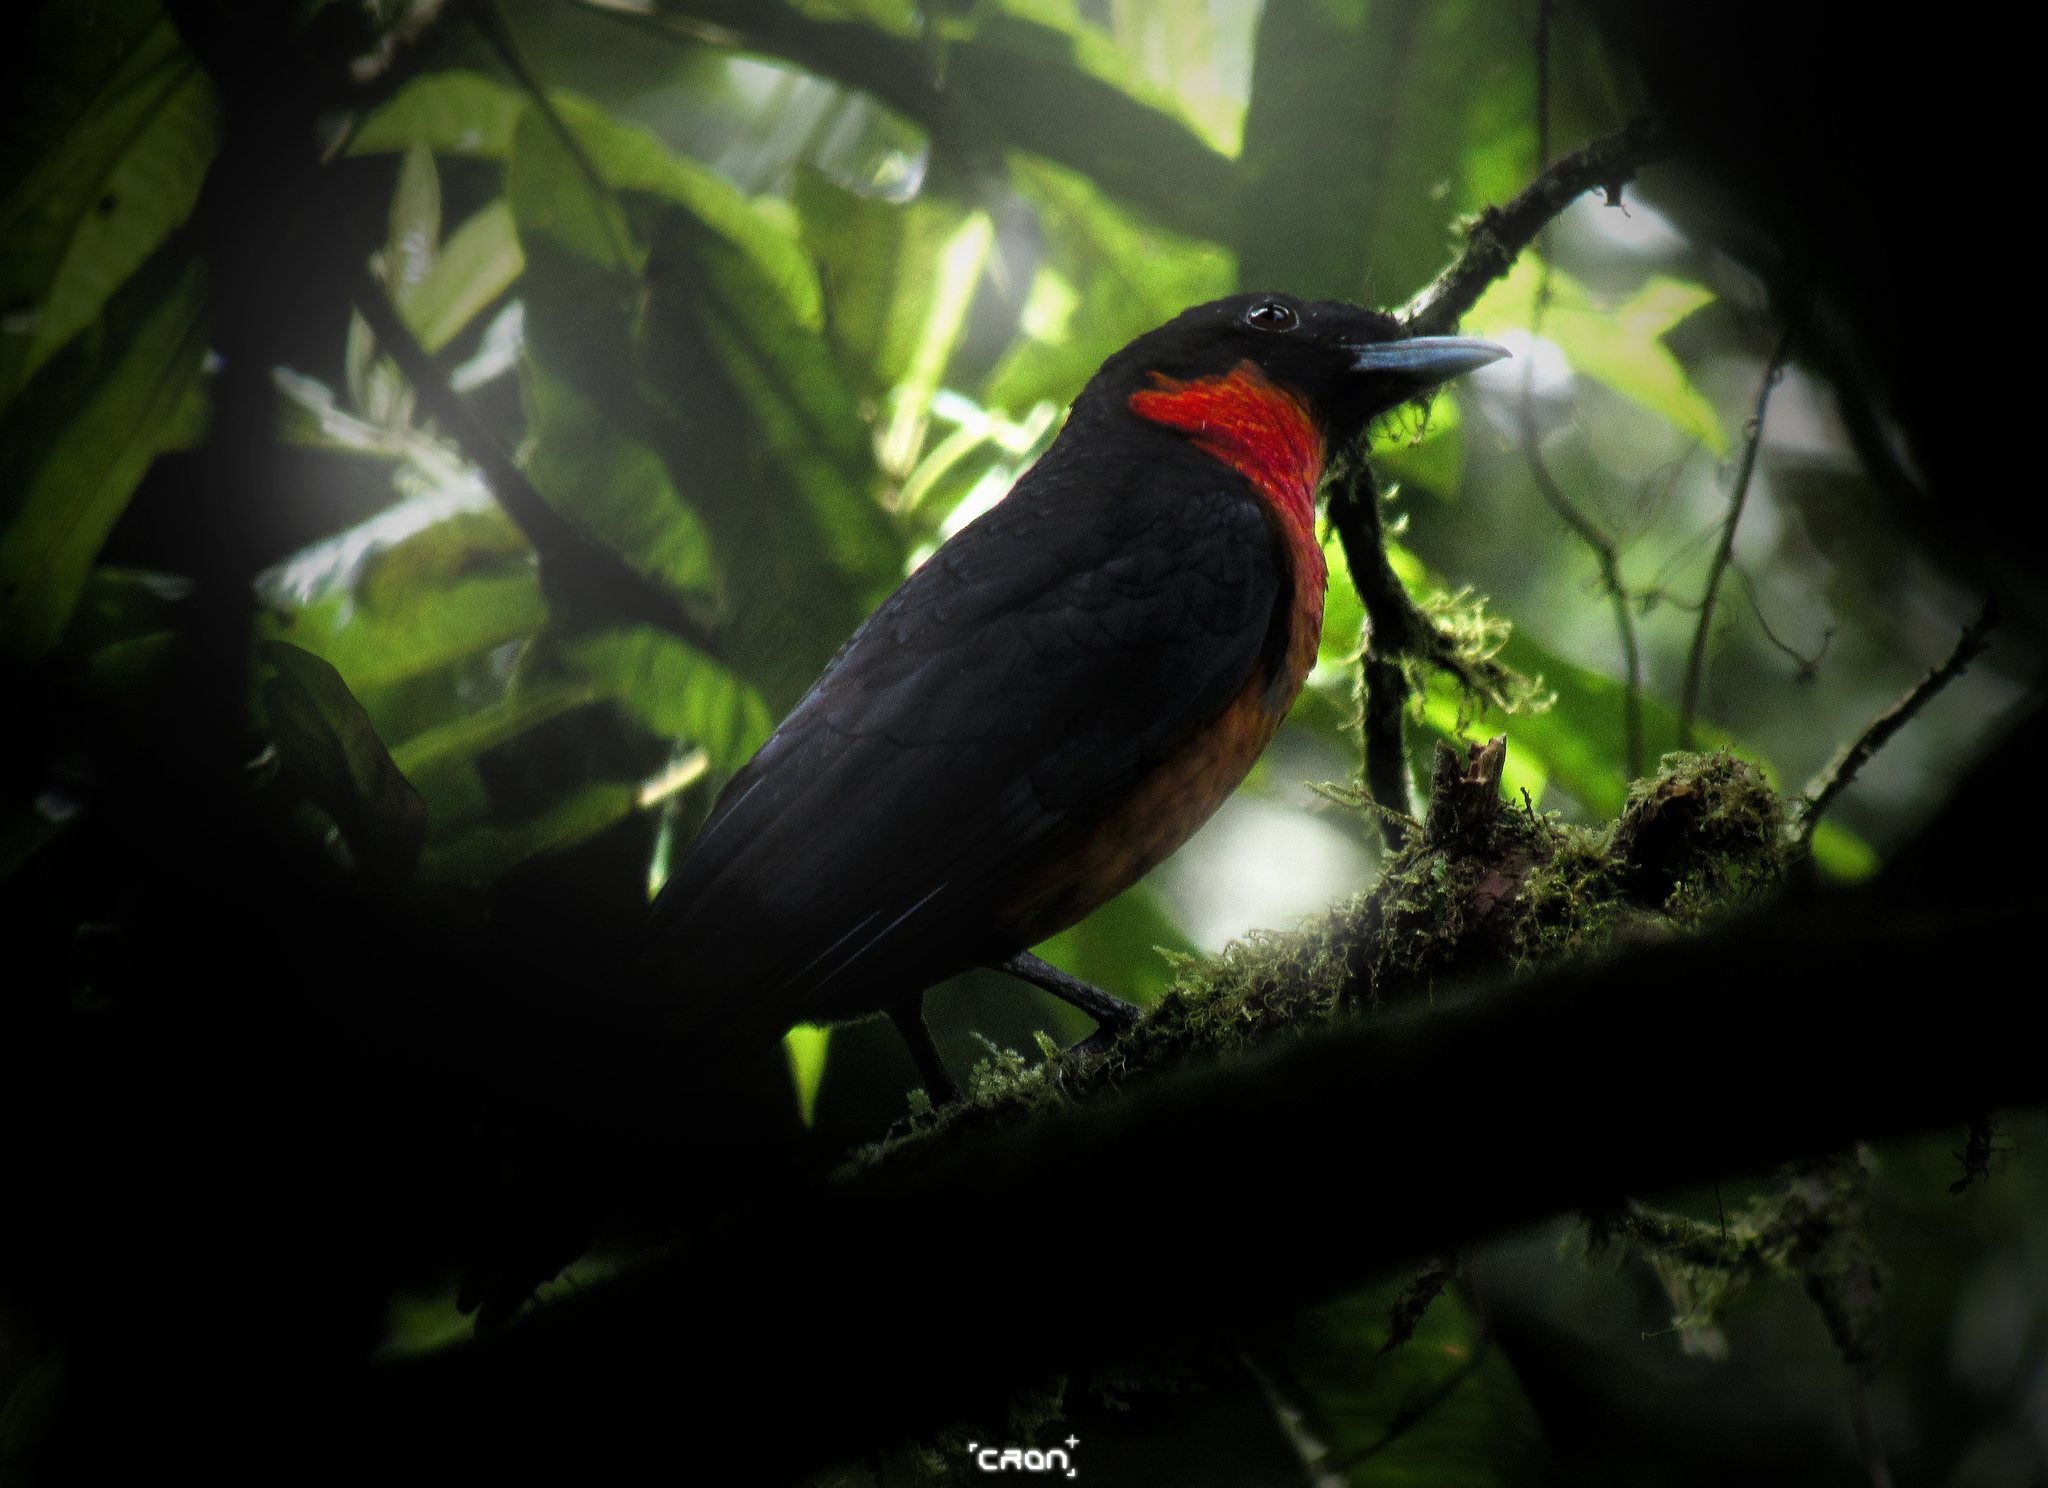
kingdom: Animalia
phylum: Chordata
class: Aves
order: Passeriformes
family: Cotingidae
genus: Pyroderus
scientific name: Pyroderus scutatus
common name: Red-ruffed fruitcrow
